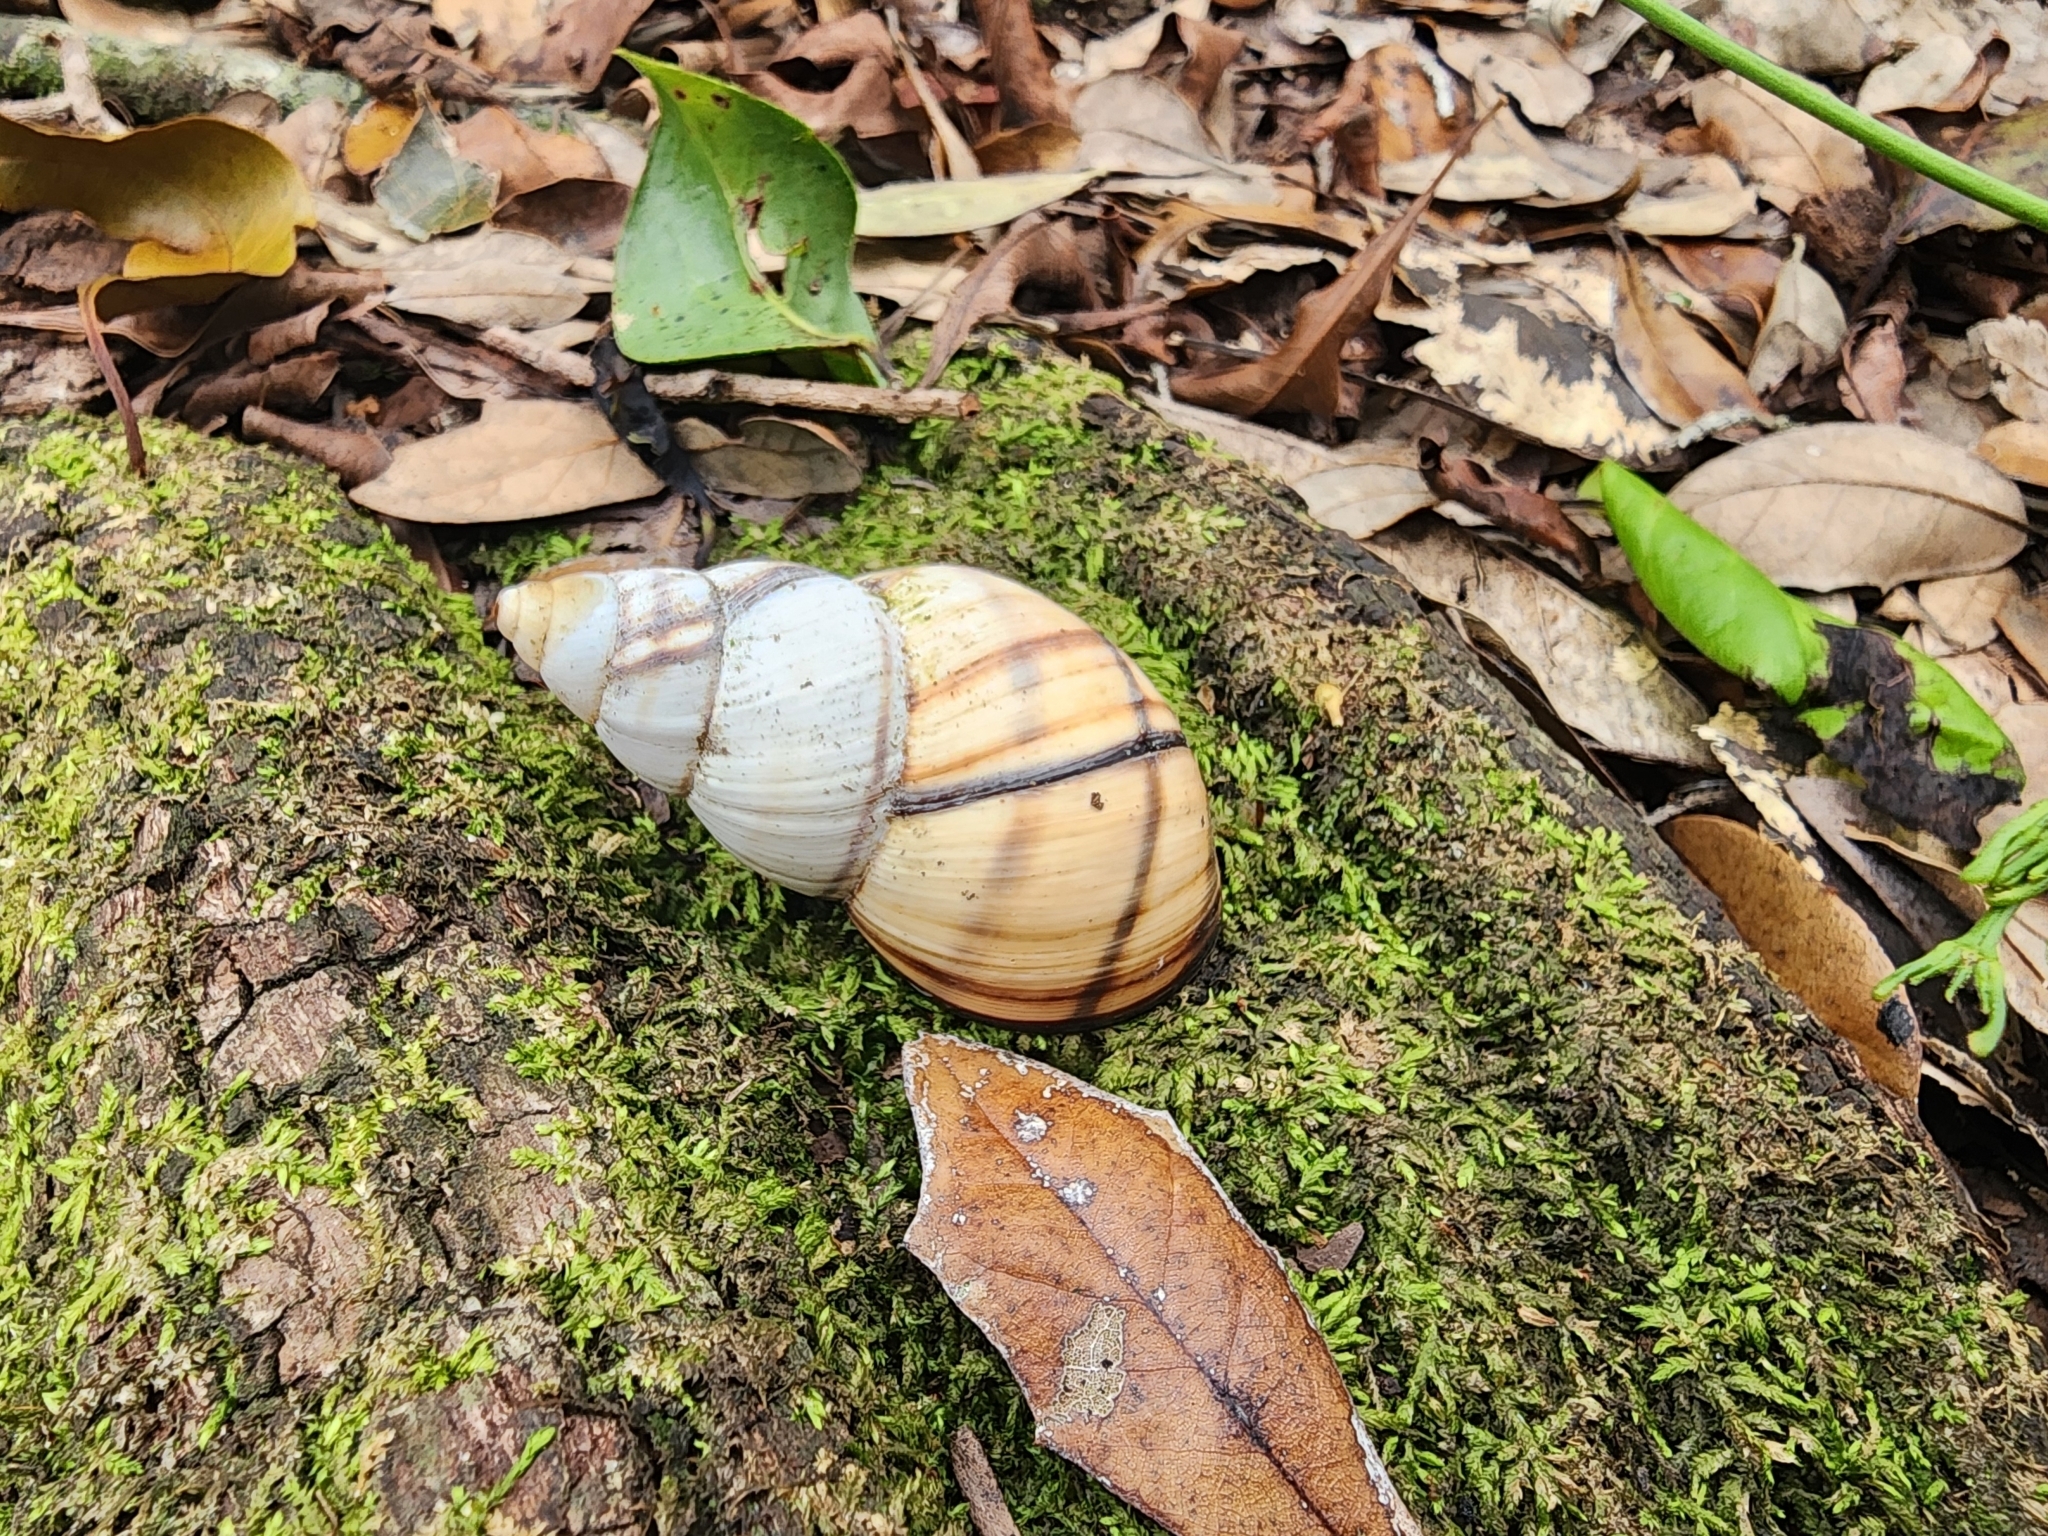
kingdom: Animalia
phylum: Mollusca
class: Gastropoda
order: Stylommatophora
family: Orthalicidae
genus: Orthalicus
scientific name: Orthalicus floridensis
